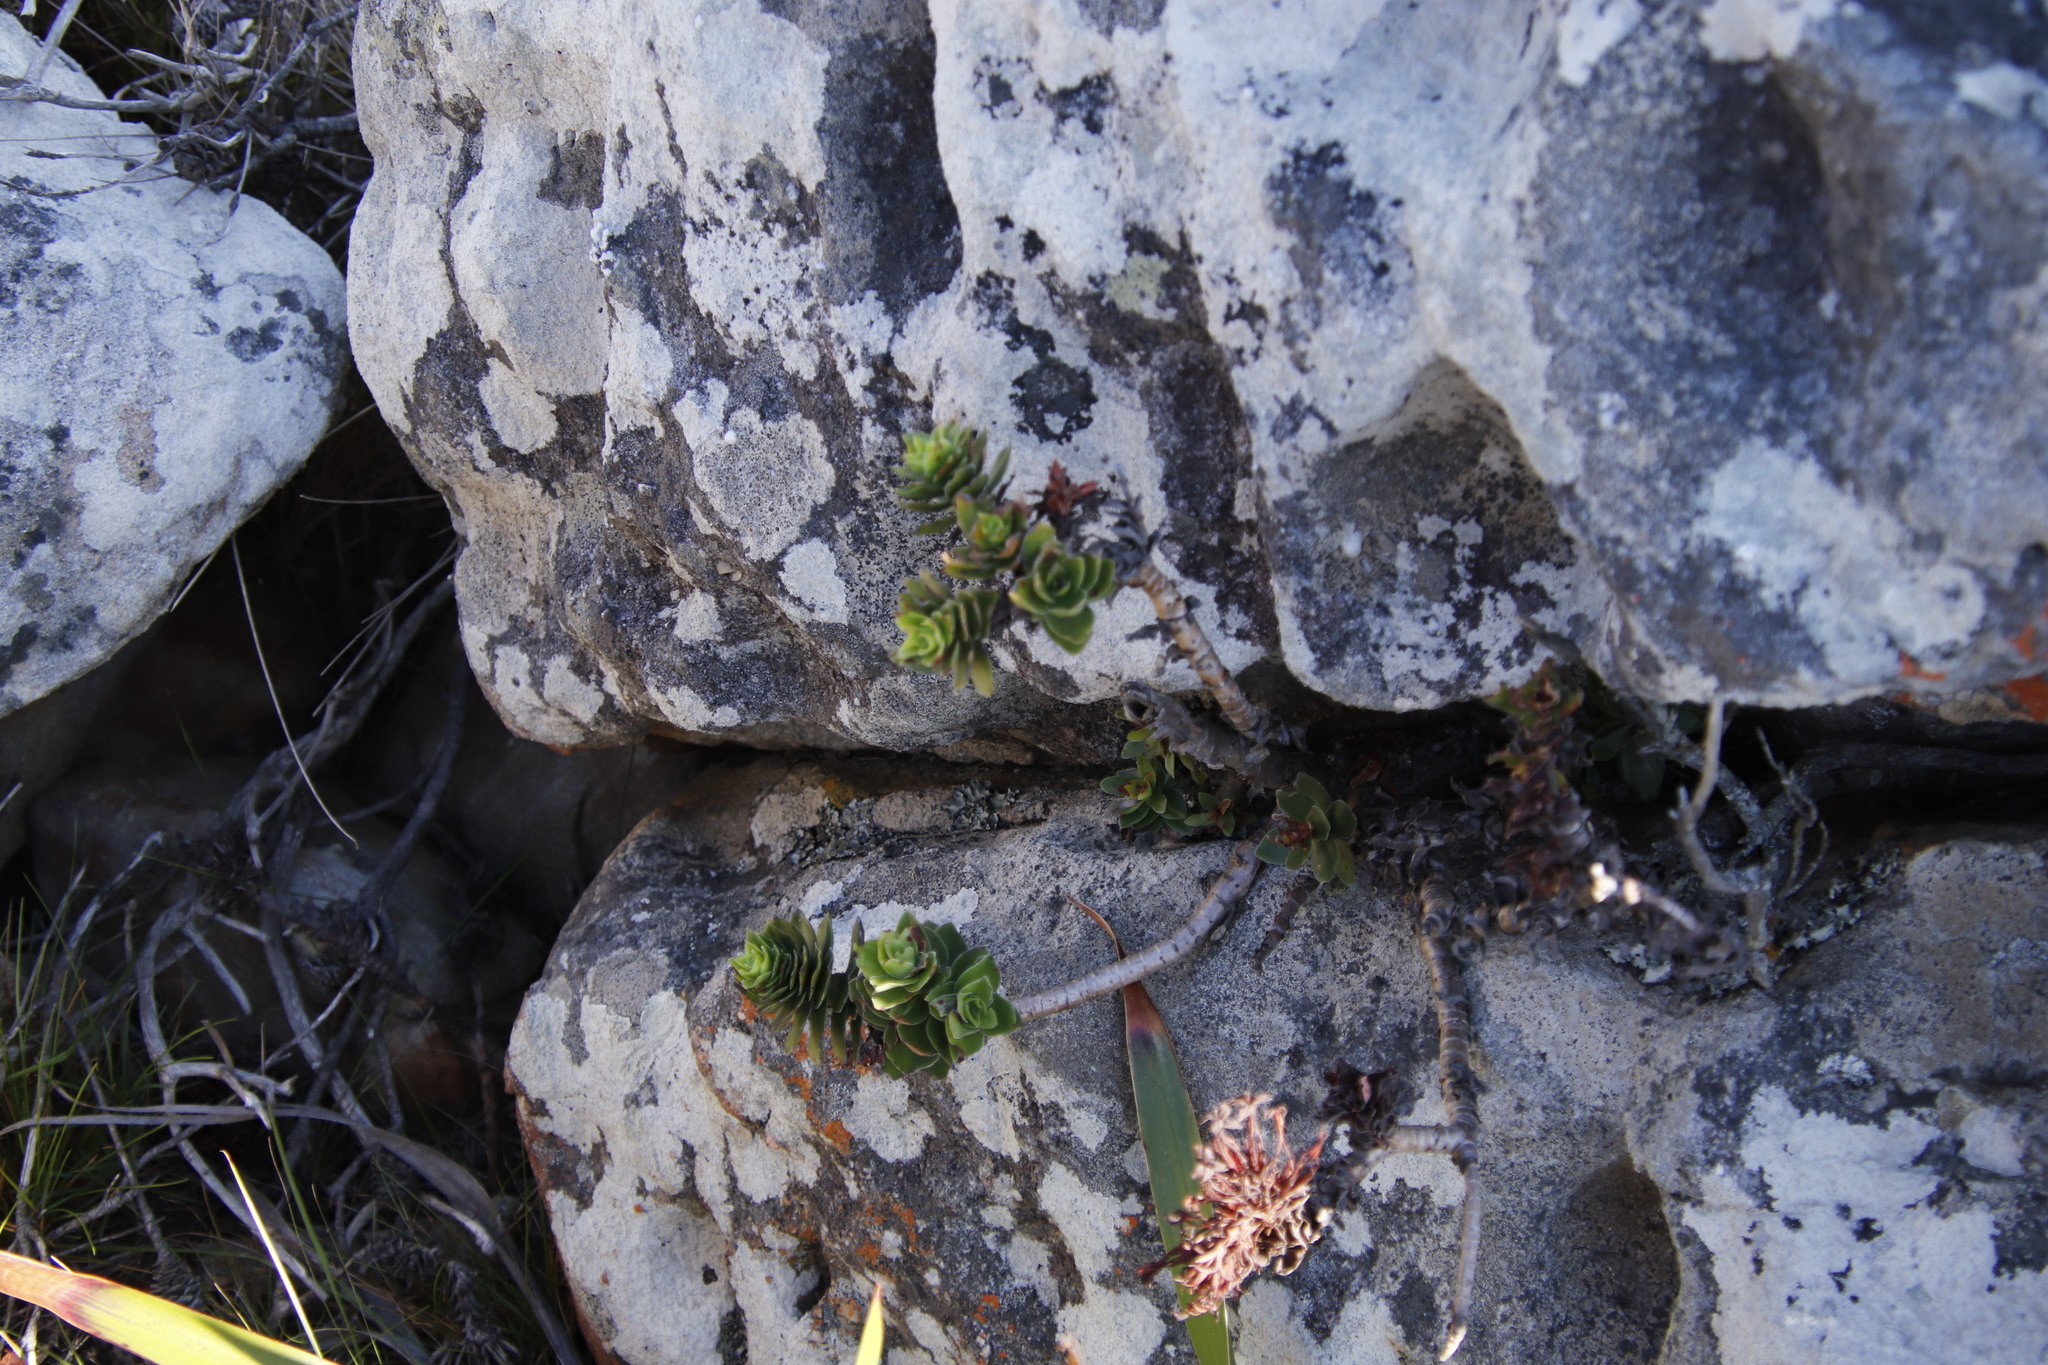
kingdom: Plantae
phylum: Tracheophyta
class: Magnoliopsida
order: Saxifragales
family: Crassulaceae
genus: Crassula
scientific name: Crassula coccinea
